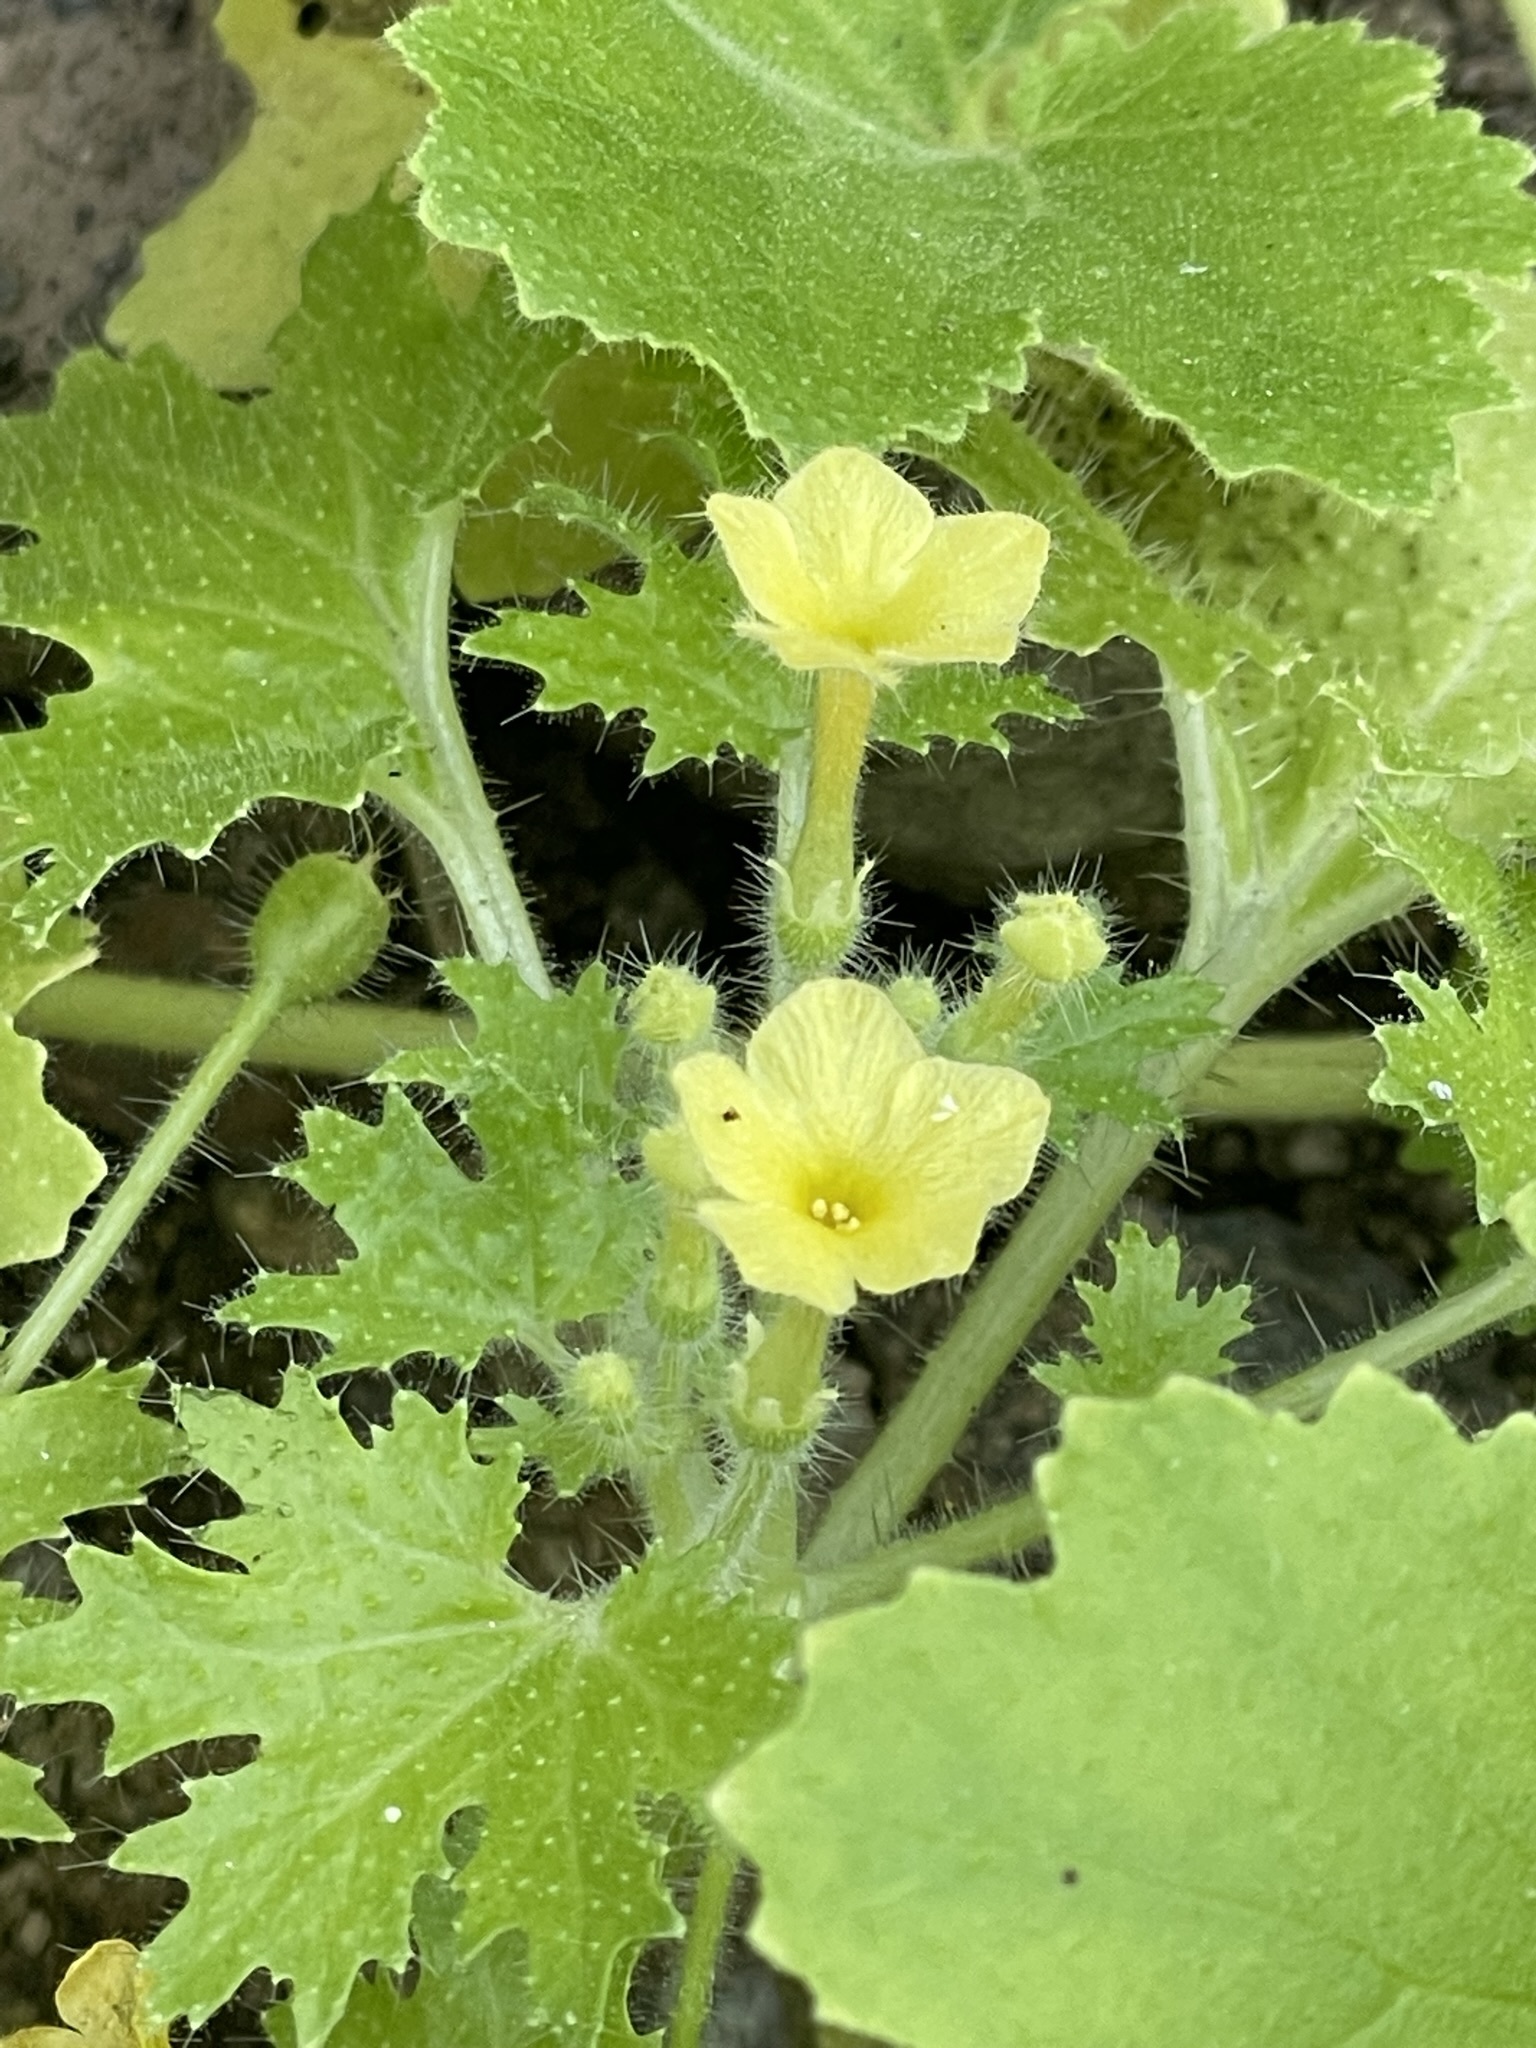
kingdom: Plantae
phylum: Tracheophyta
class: Magnoliopsida
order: Cornales
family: Loasaceae
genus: Eucnide
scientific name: Eucnide aurea
